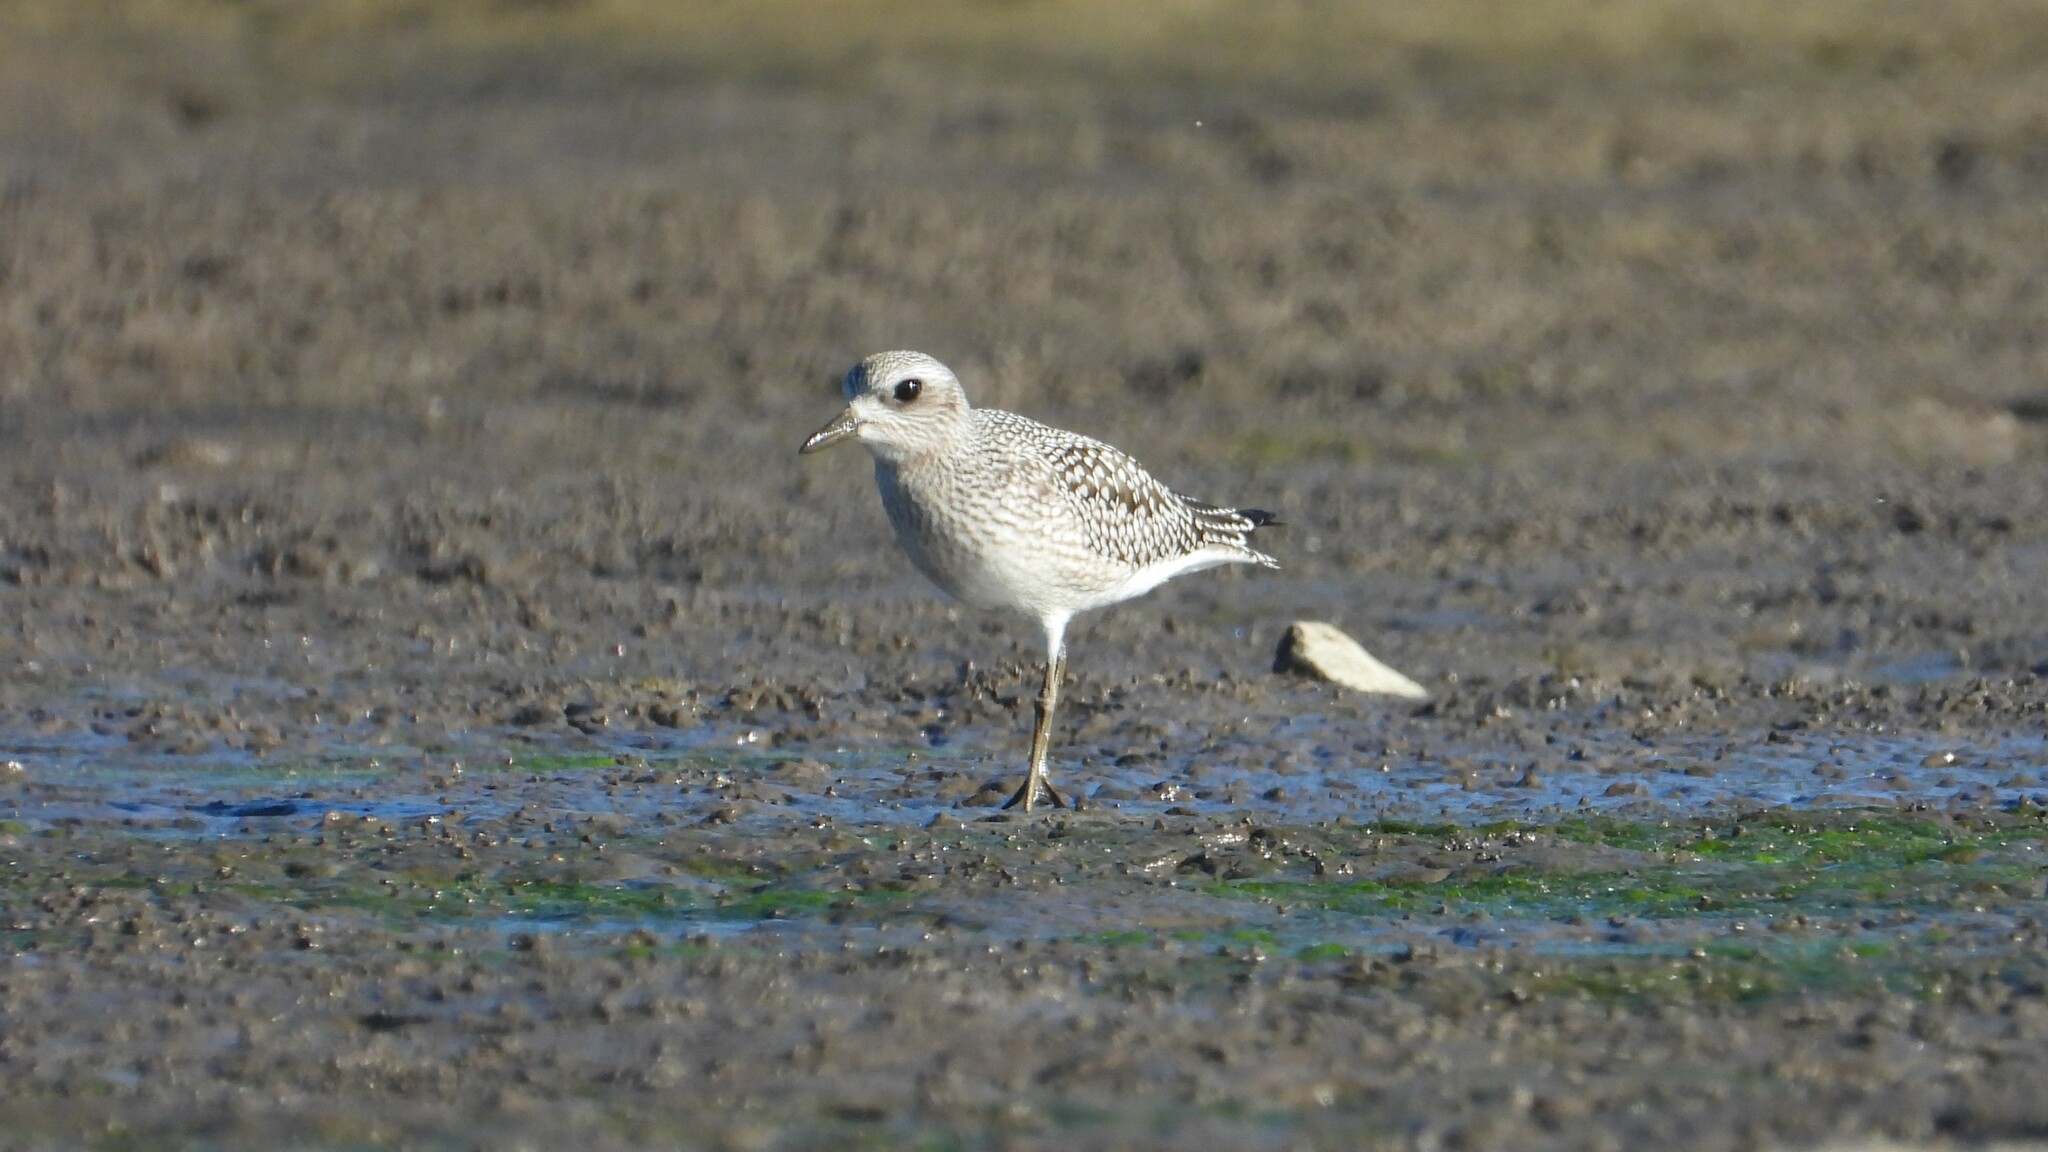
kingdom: Animalia
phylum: Chordata
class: Aves
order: Charadriiformes
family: Charadriidae
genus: Pluvialis
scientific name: Pluvialis squatarola
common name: Grey plover
